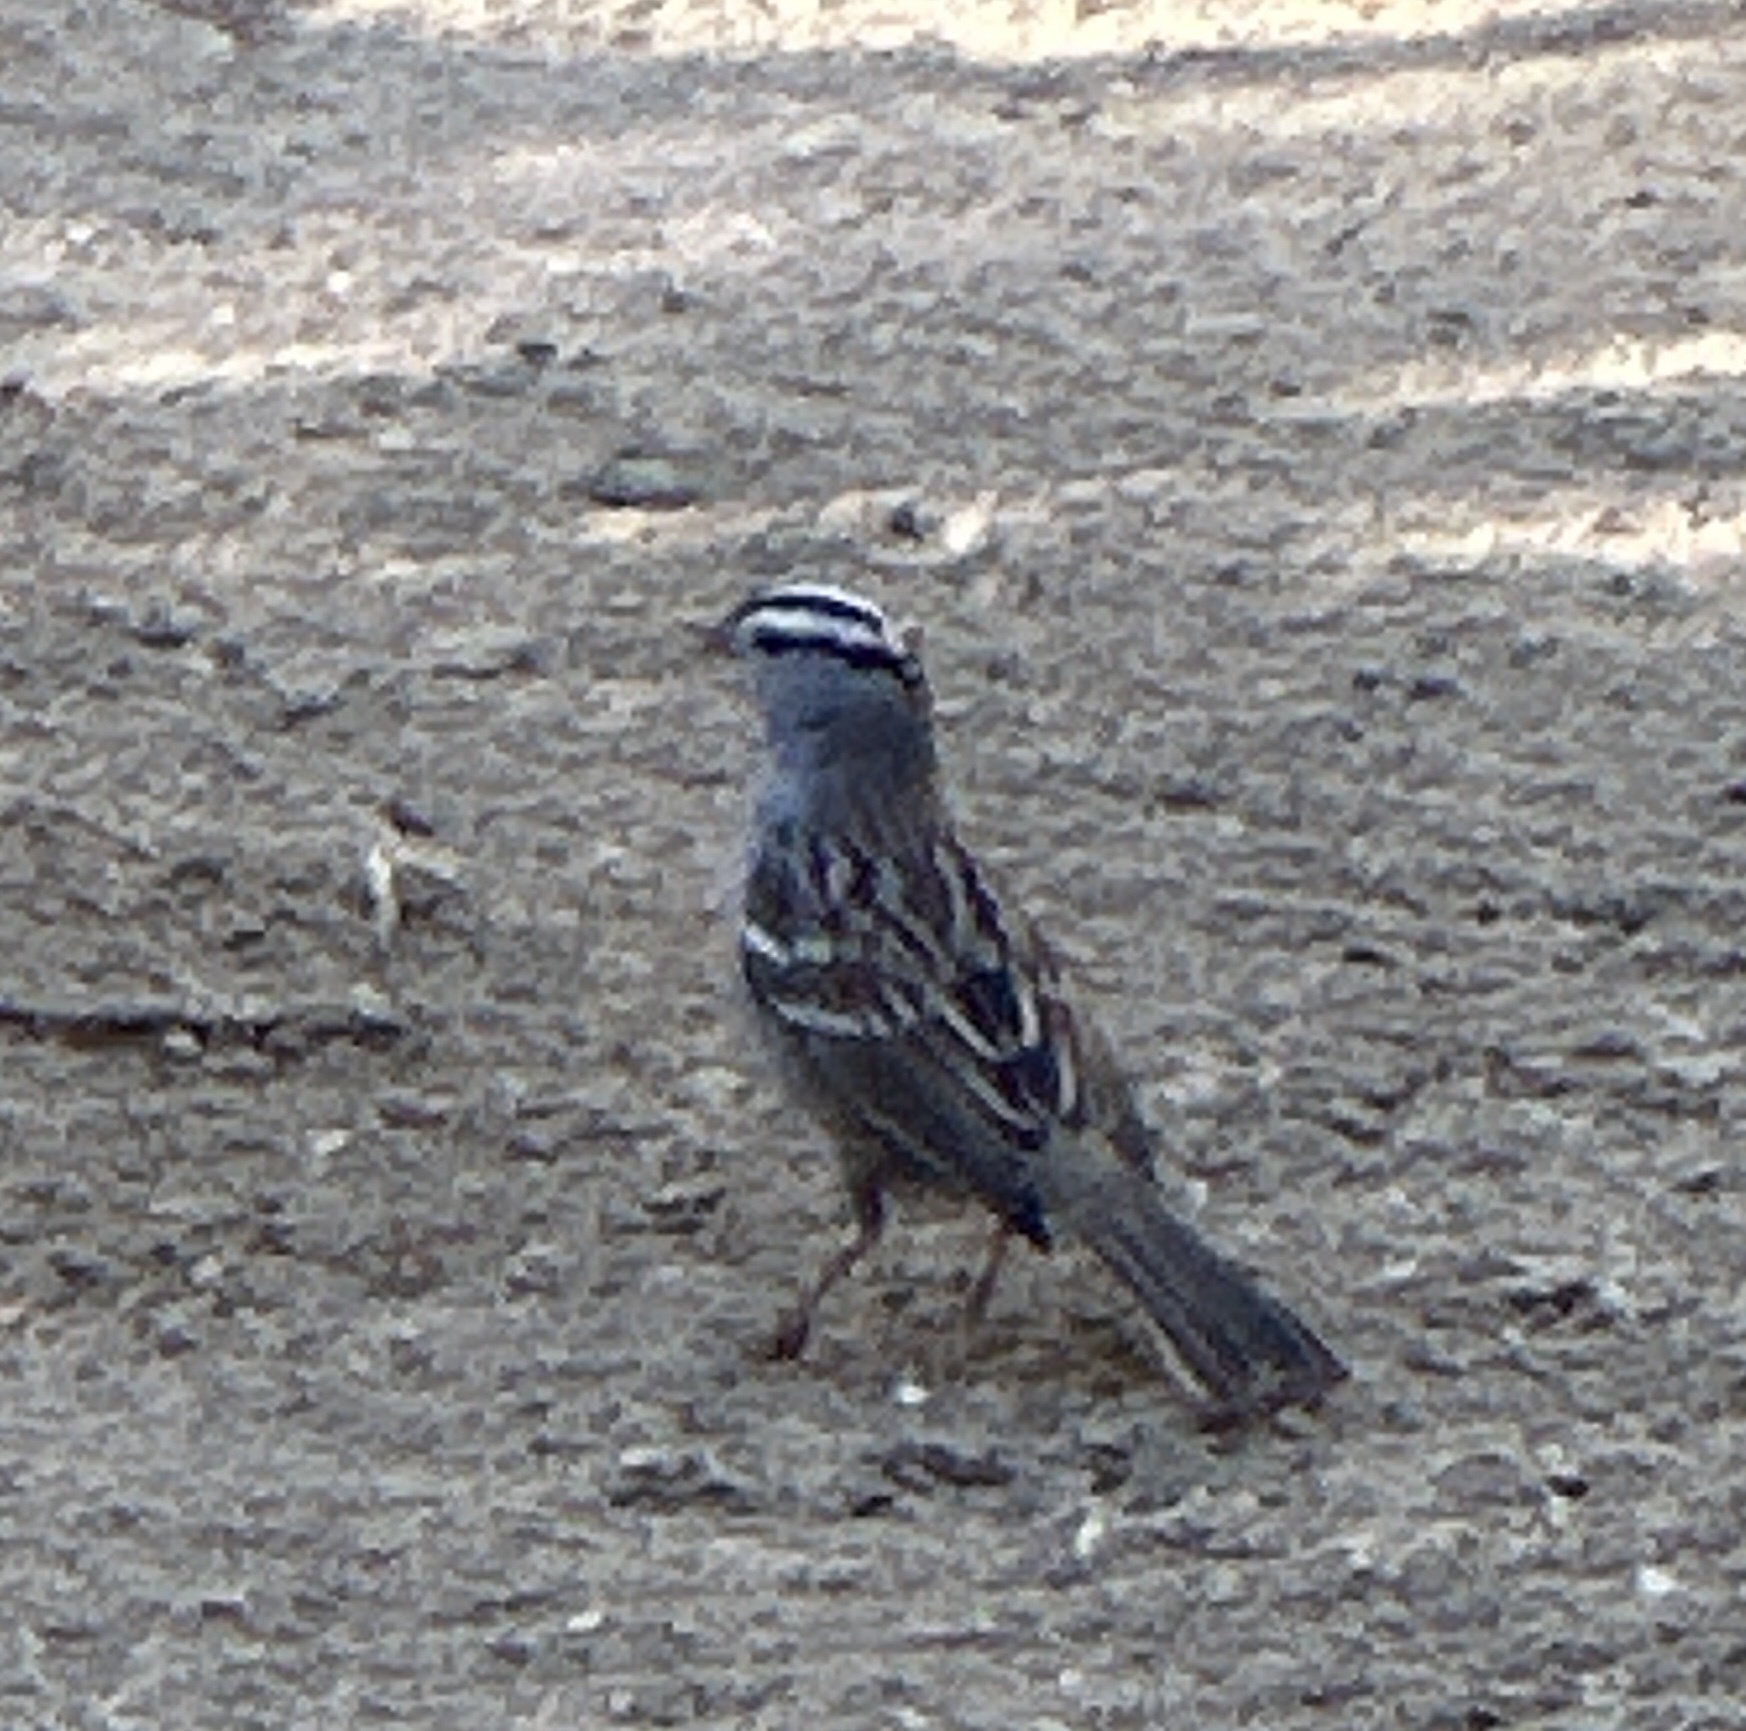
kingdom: Animalia
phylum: Chordata
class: Aves
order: Passeriformes
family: Passerellidae
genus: Zonotrichia
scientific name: Zonotrichia leucophrys
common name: White-crowned sparrow
